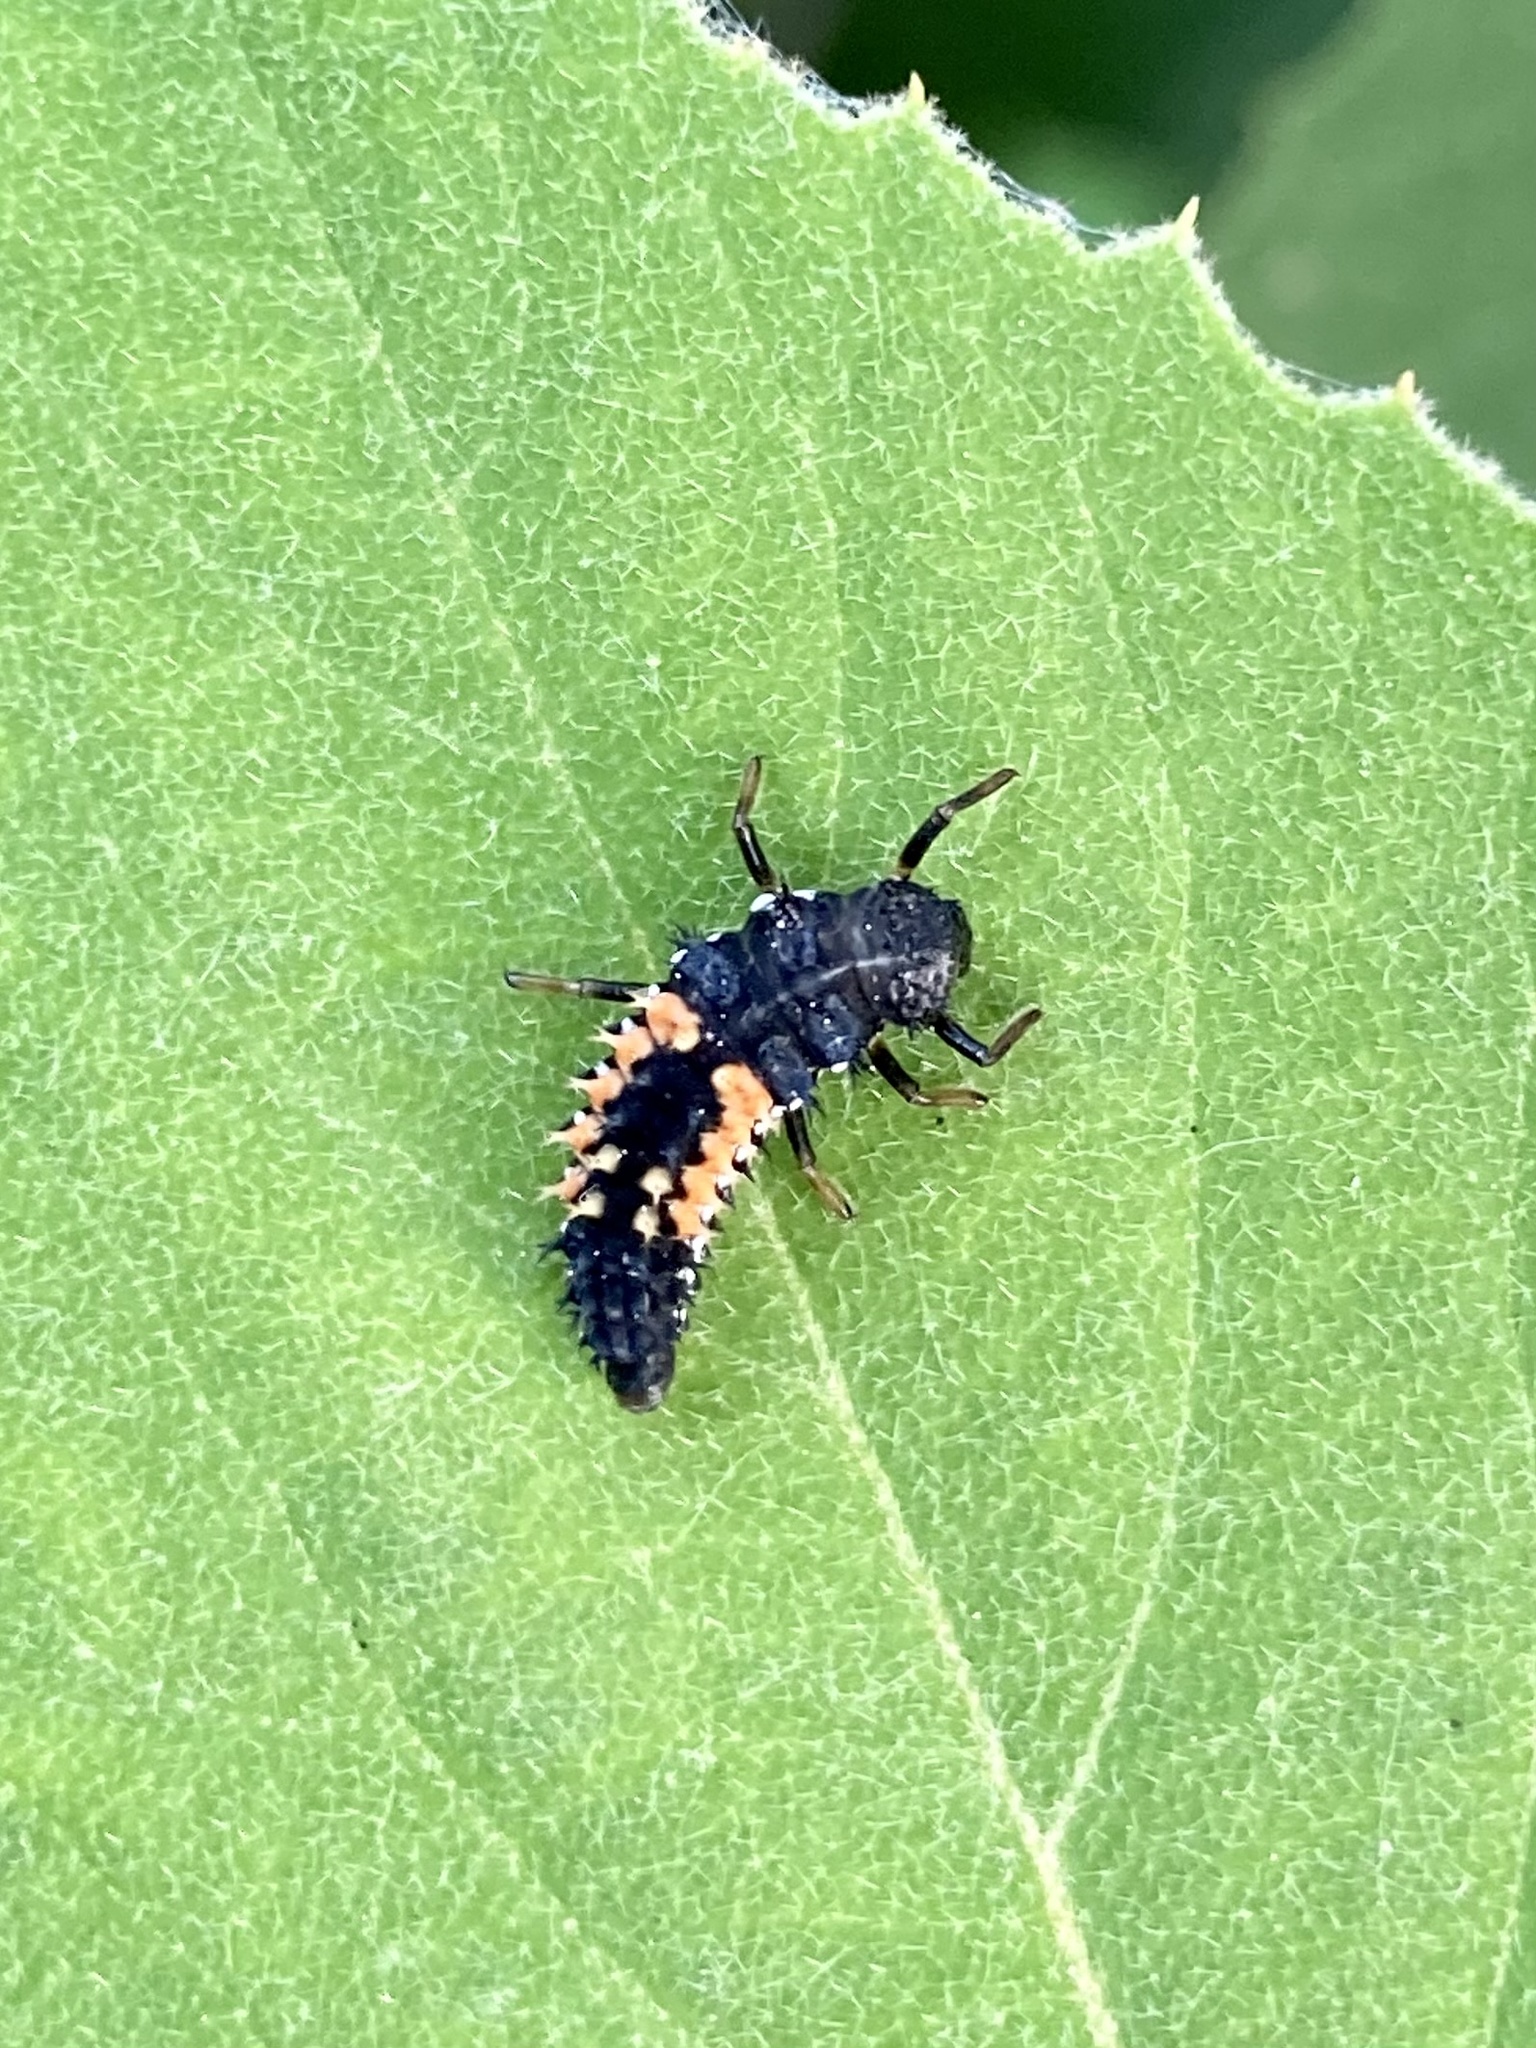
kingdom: Animalia
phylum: Arthropoda
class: Insecta
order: Coleoptera
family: Coccinellidae
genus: Harmonia
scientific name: Harmonia axyridis
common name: Harlequin ladybird
